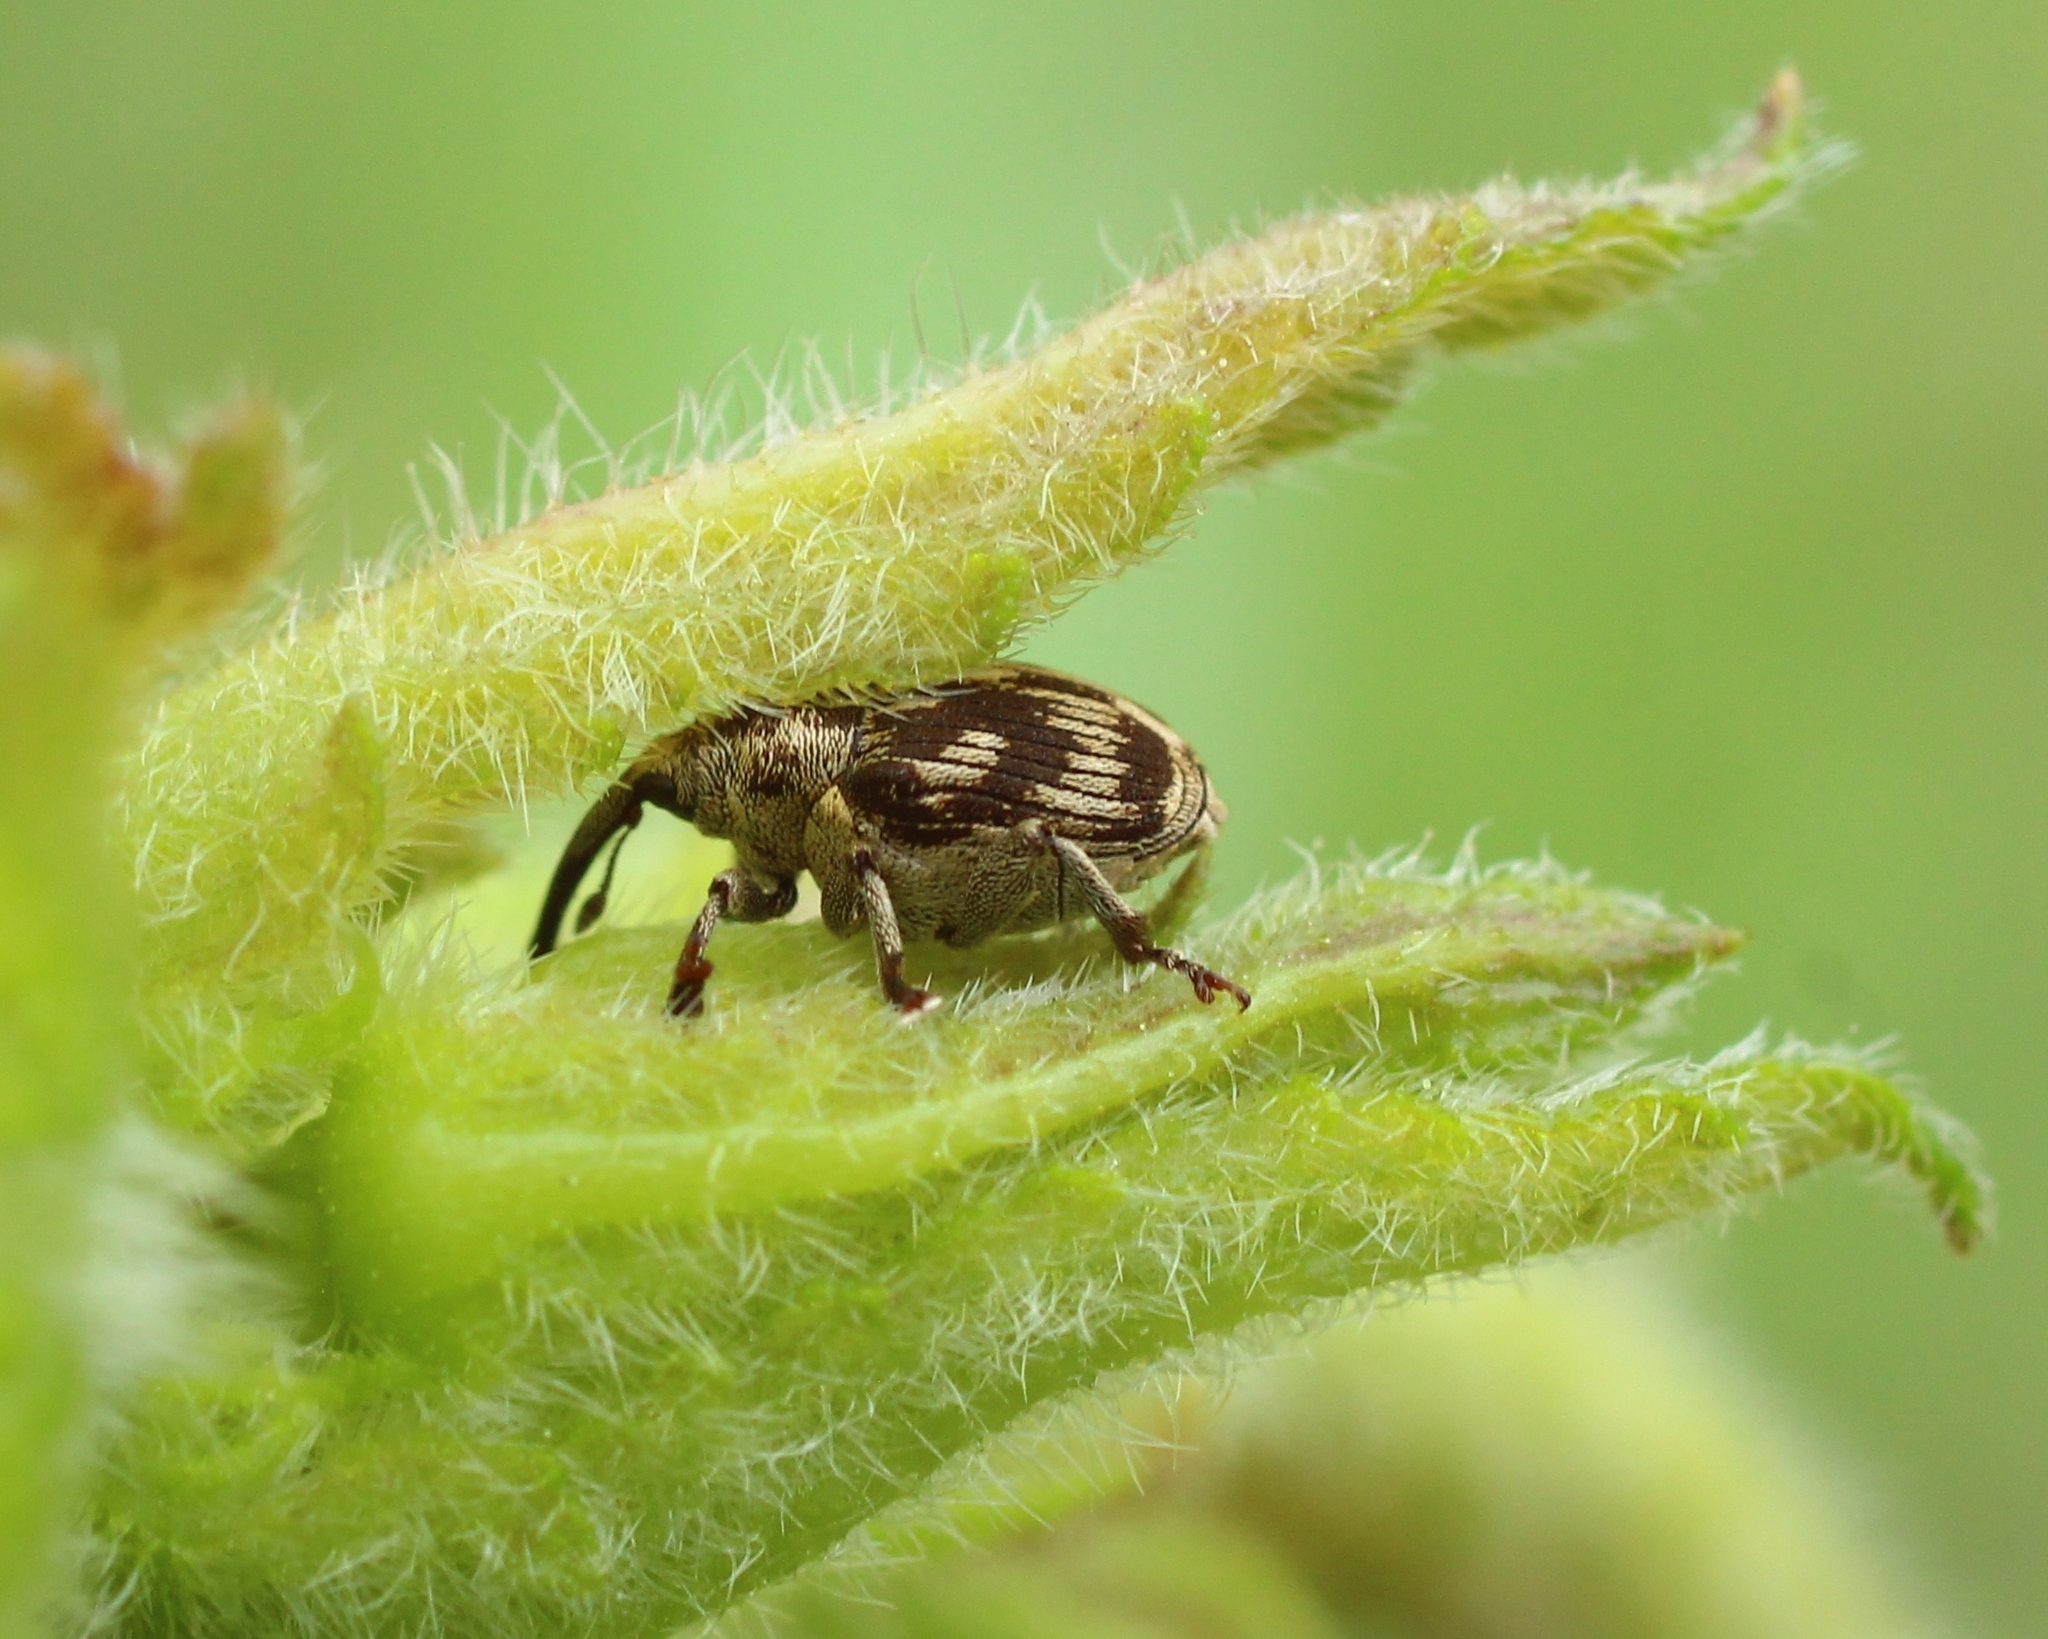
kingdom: Animalia
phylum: Arthropoda
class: Insecta
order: Coleoptera
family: Curculionidae
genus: Ceuthorhynchus
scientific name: Ceuthorhynchus virgatus
